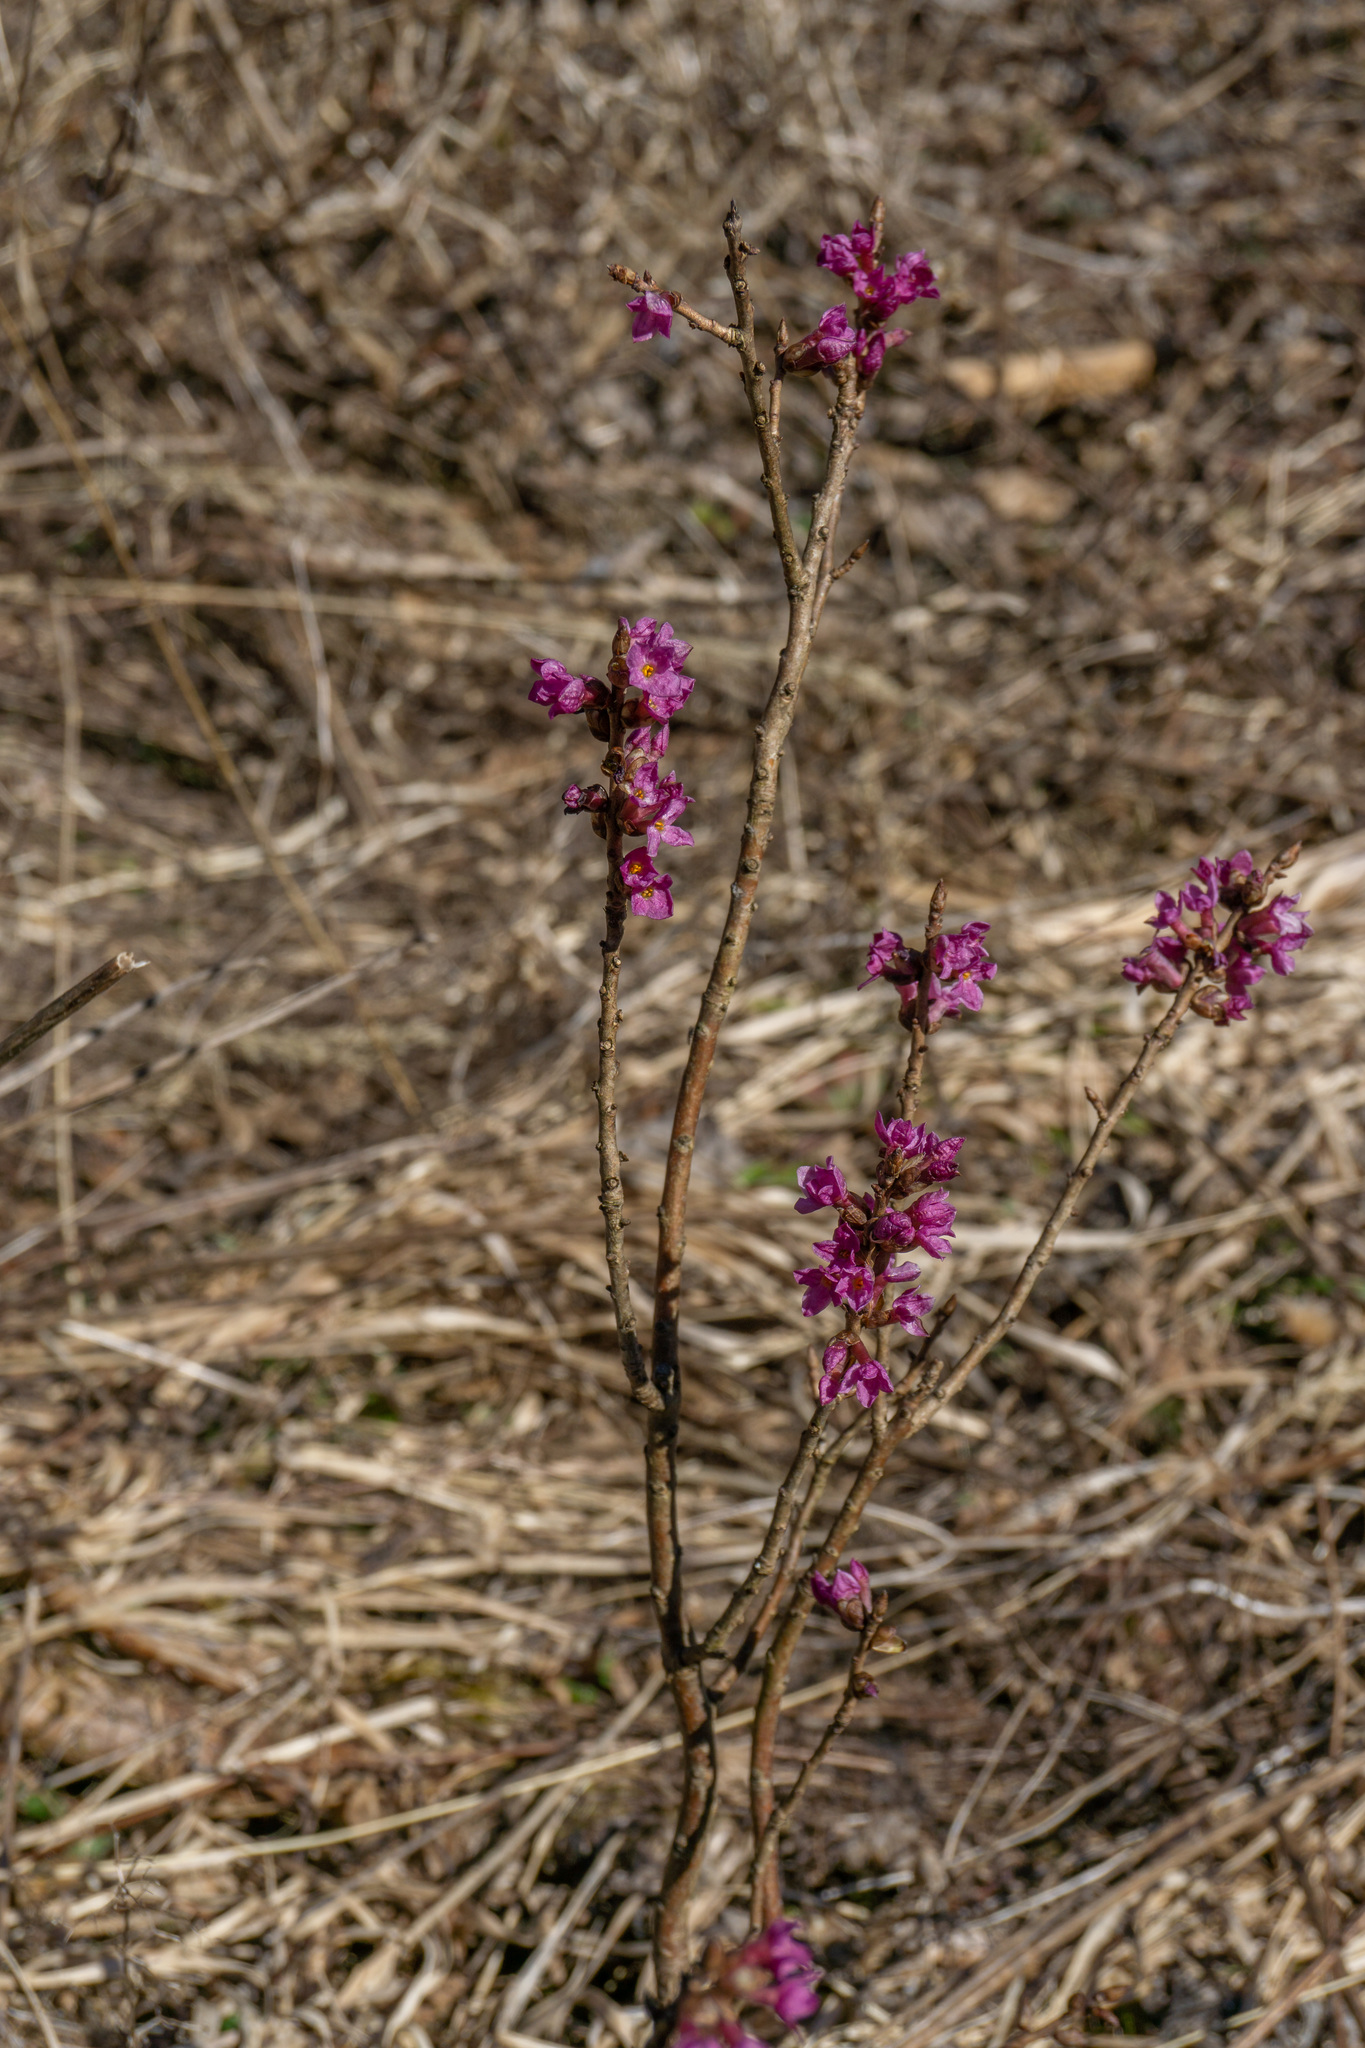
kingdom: Plantae
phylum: Tracheophyta
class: Magnoliopsida
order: Malvales
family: Thymelaeaceae
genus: Daphne
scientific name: Daphne mezereum
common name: Mezereon
